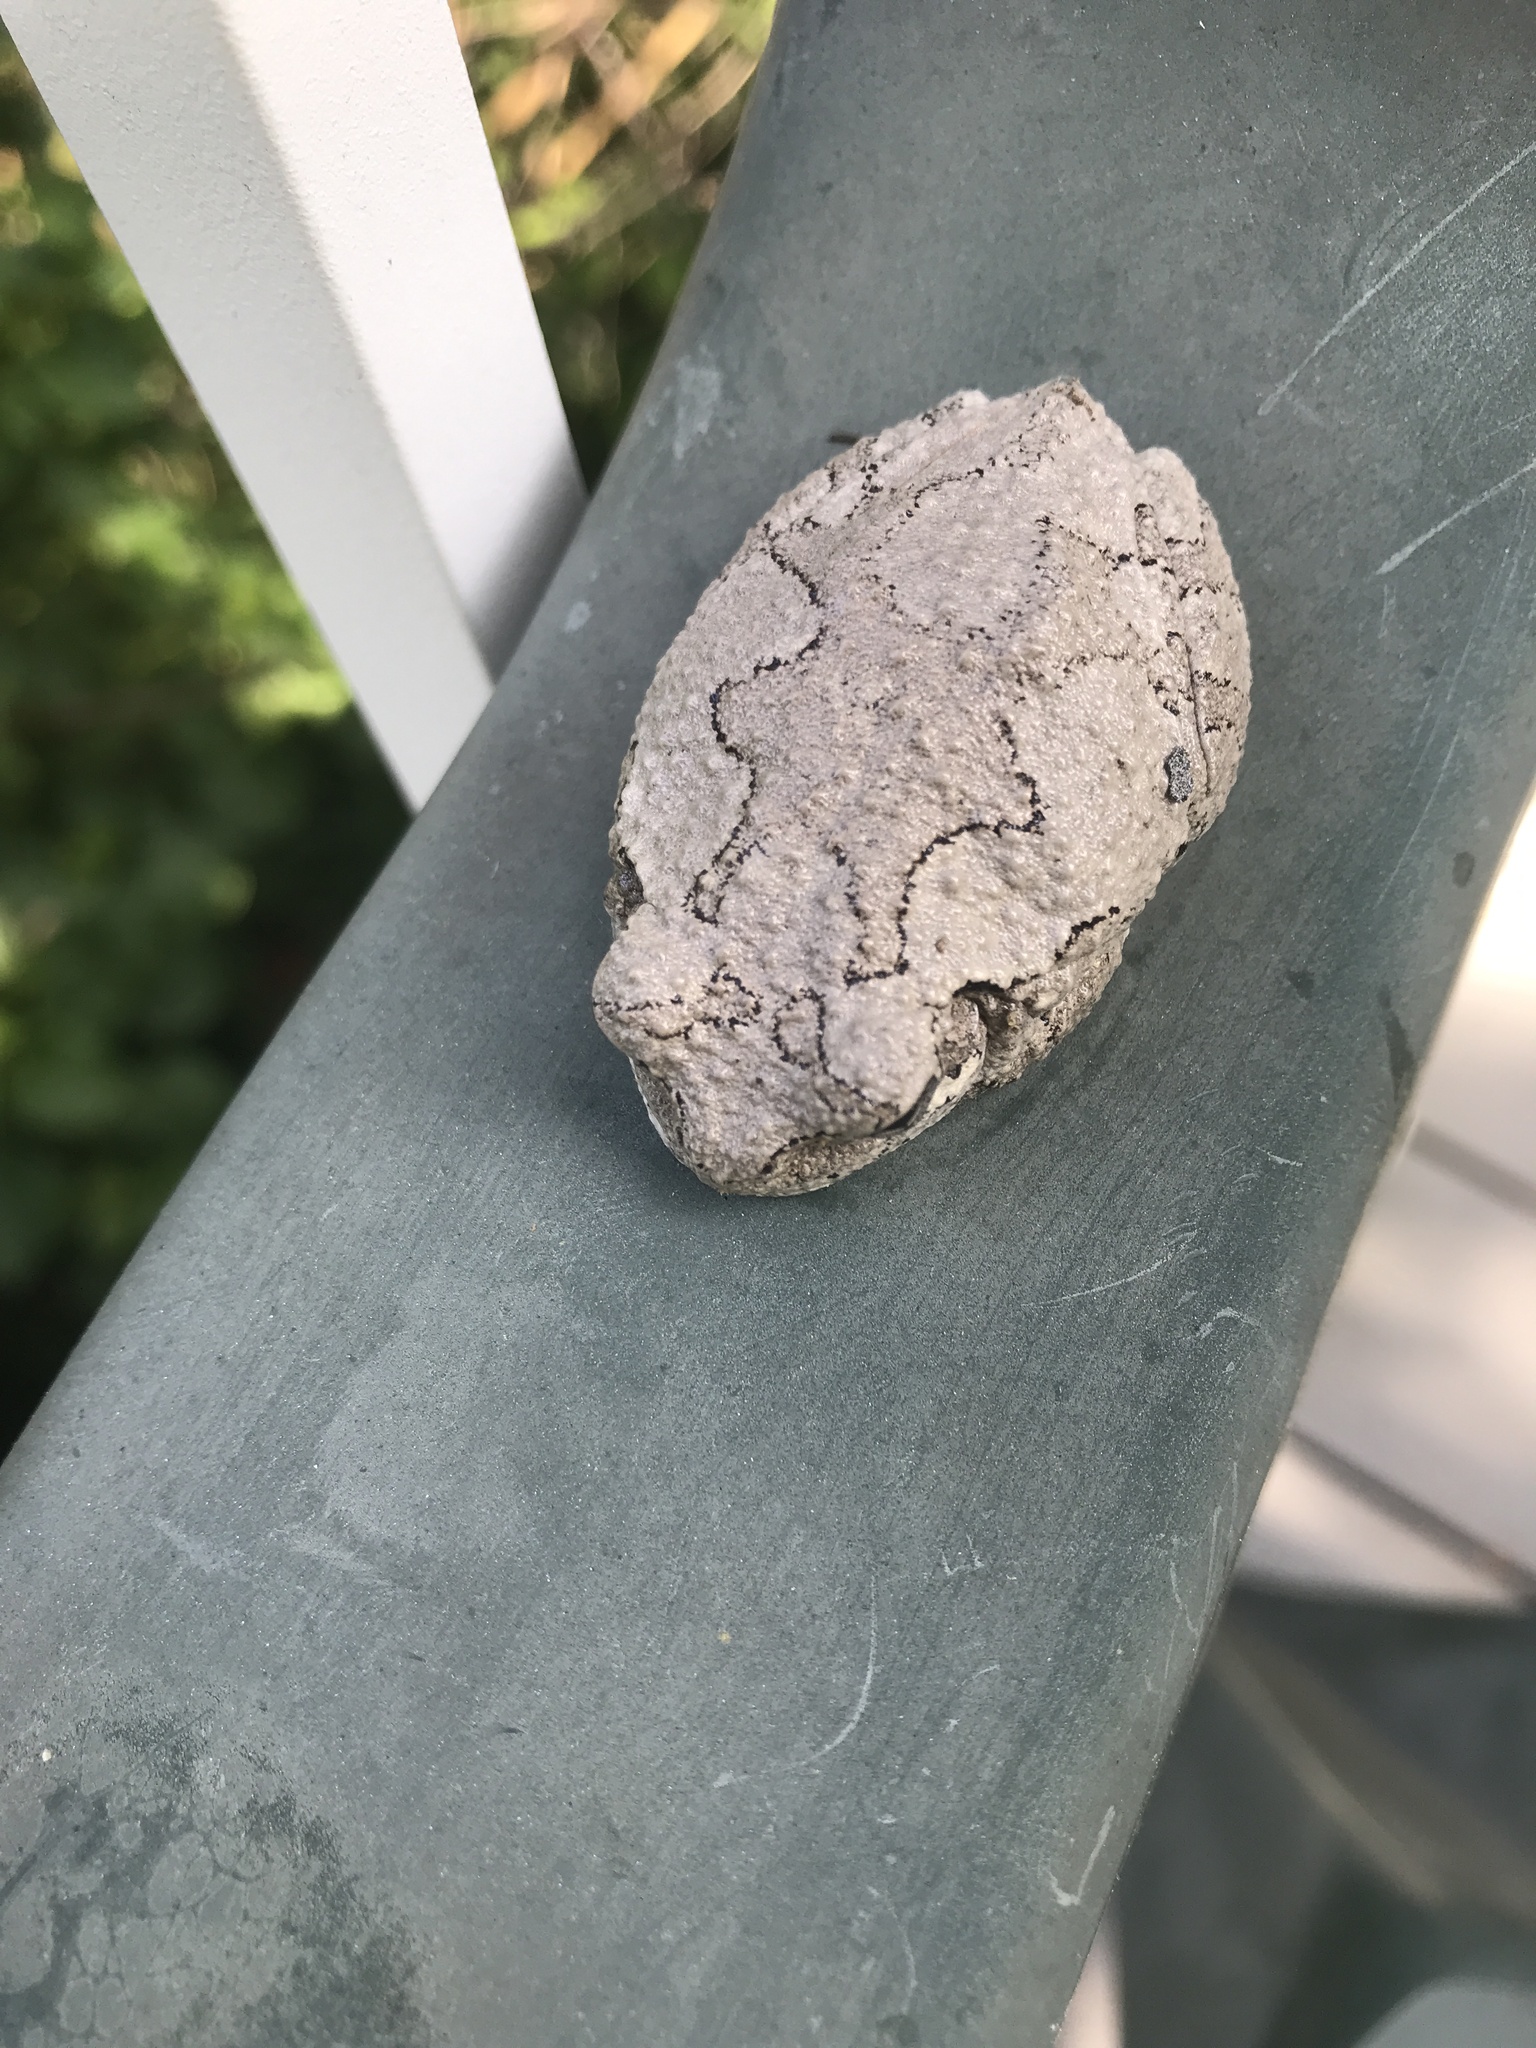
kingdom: Animalia
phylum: Chordata
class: Amphibia
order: Anura
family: Hylidae
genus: Dryophytes
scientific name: Dryophytes versicolor
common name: Gray treefrog
